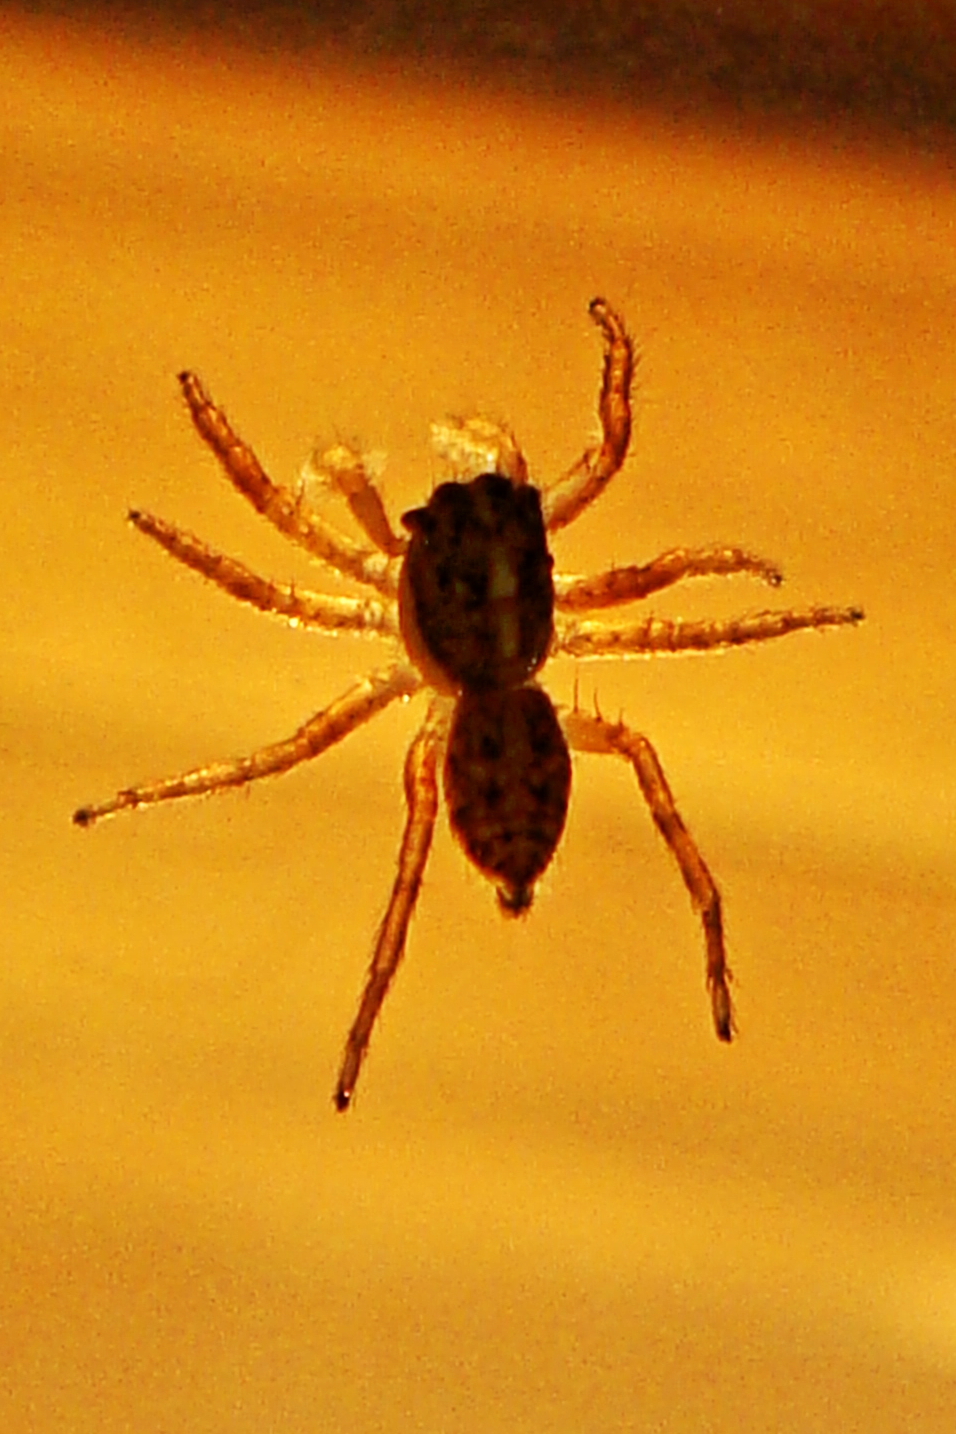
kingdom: Animalia
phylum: Arthropoda
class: Arachnida
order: Araneae
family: Salticidae
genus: Menemerus
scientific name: Menemerus semilimbatus
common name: Jumping spider
